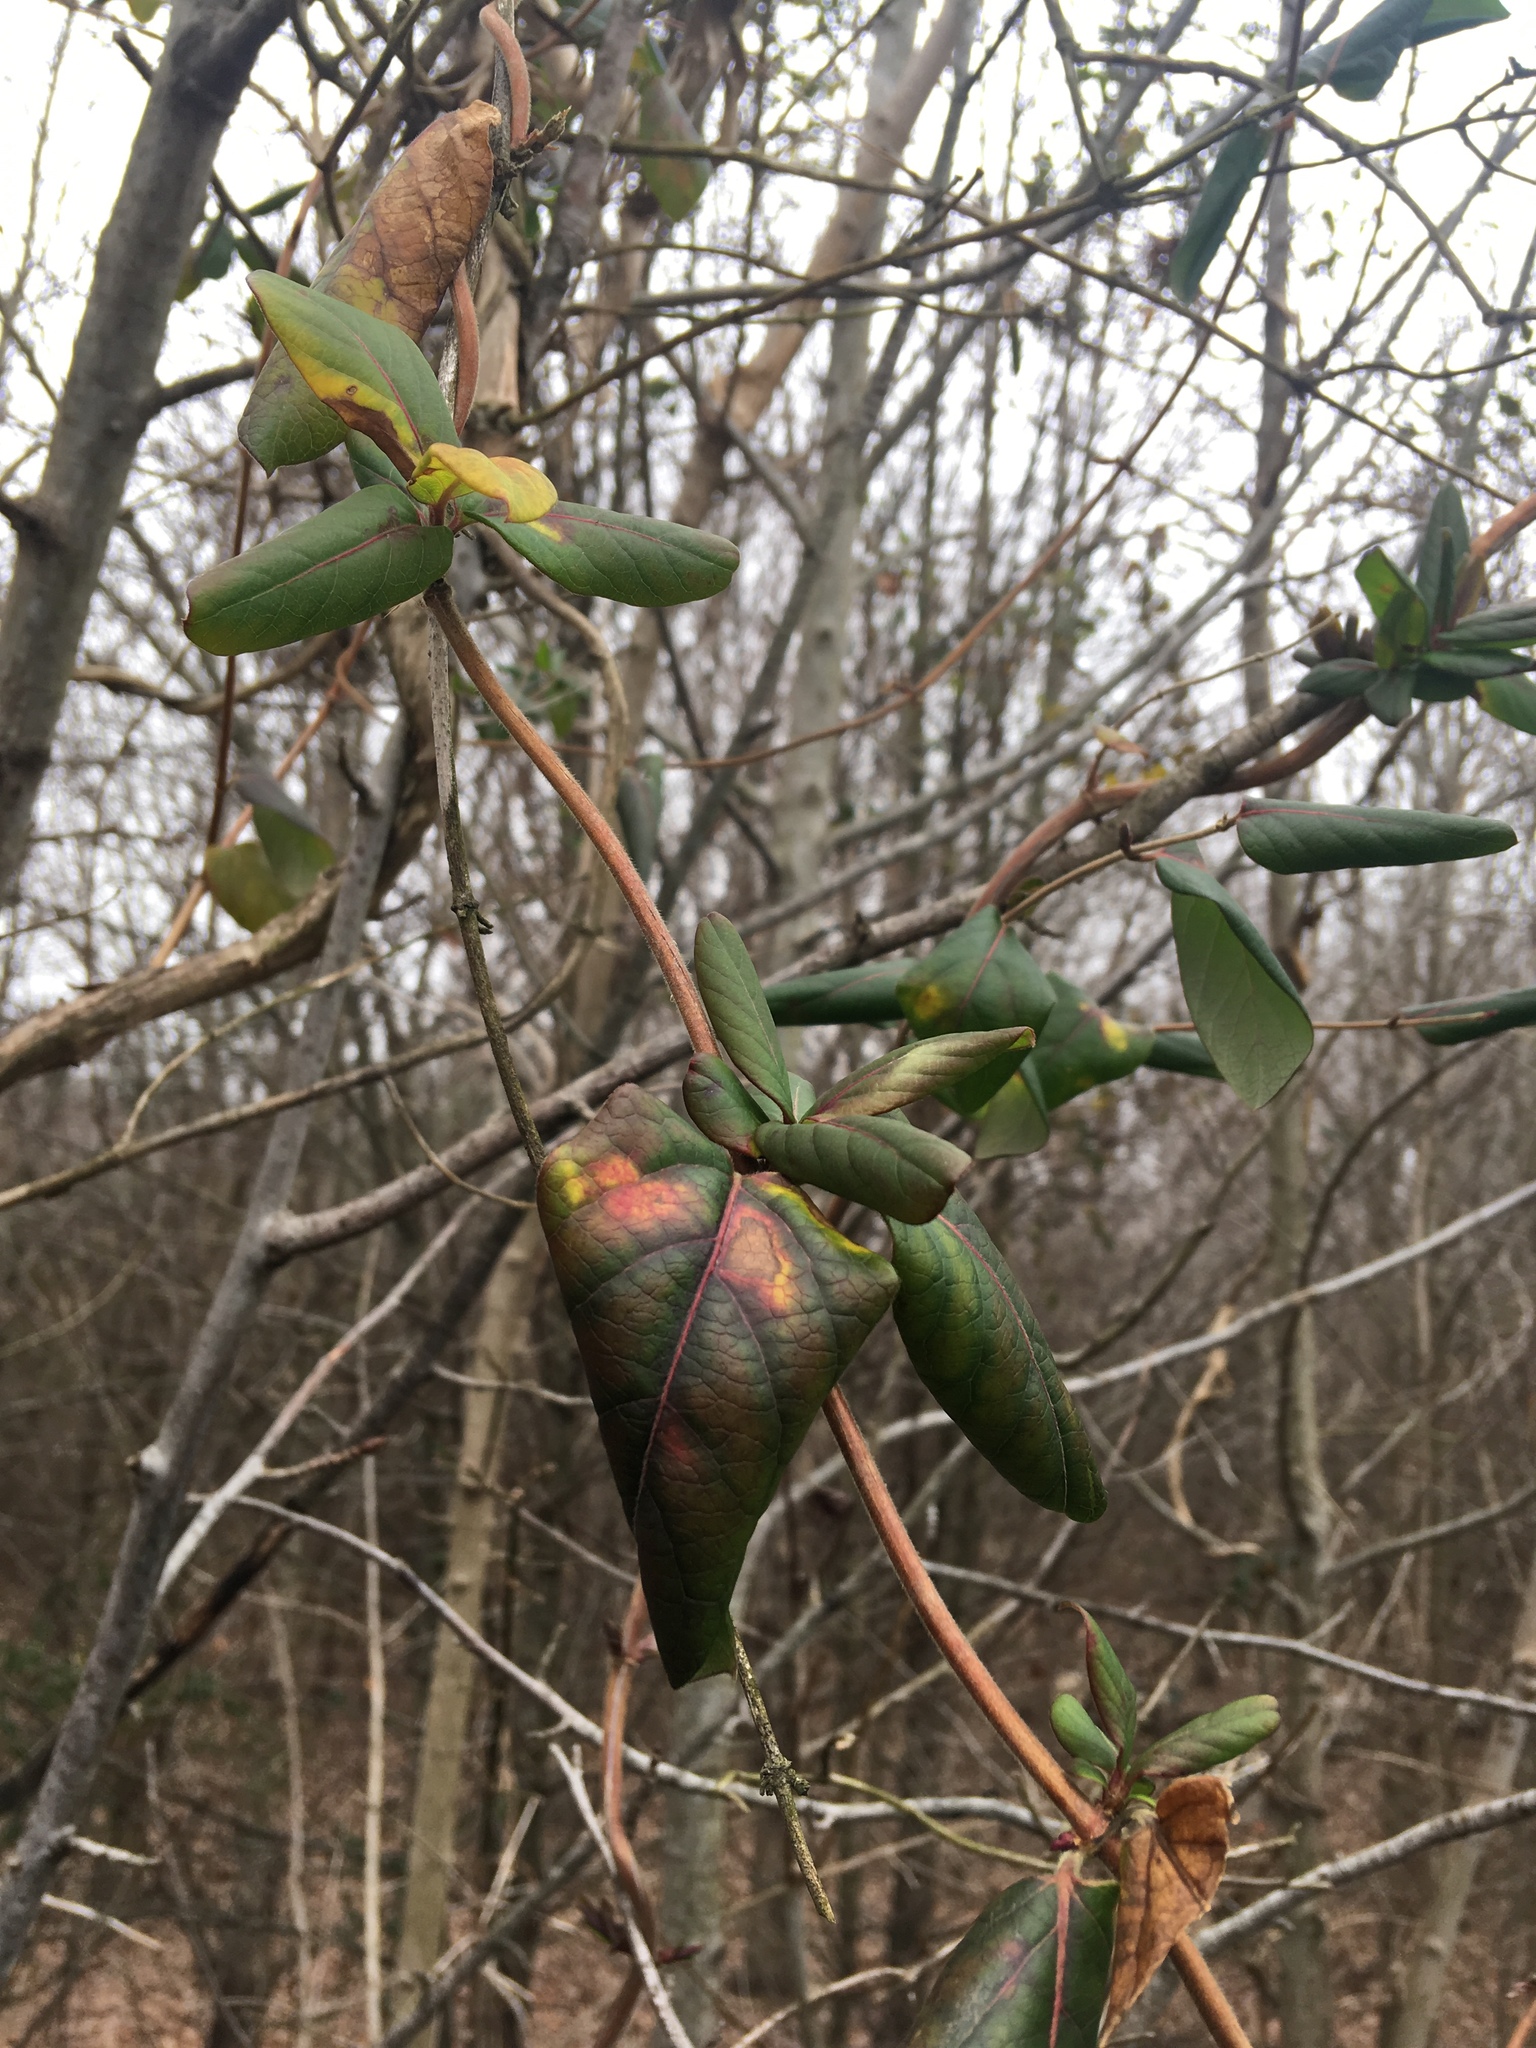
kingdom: Plantae
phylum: Tracheophyta
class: Magnoliopsida
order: Dipsacales
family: Caprifoliaceae
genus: Lonicera
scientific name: Lonicera japonica
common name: Japanese honeysuckle
